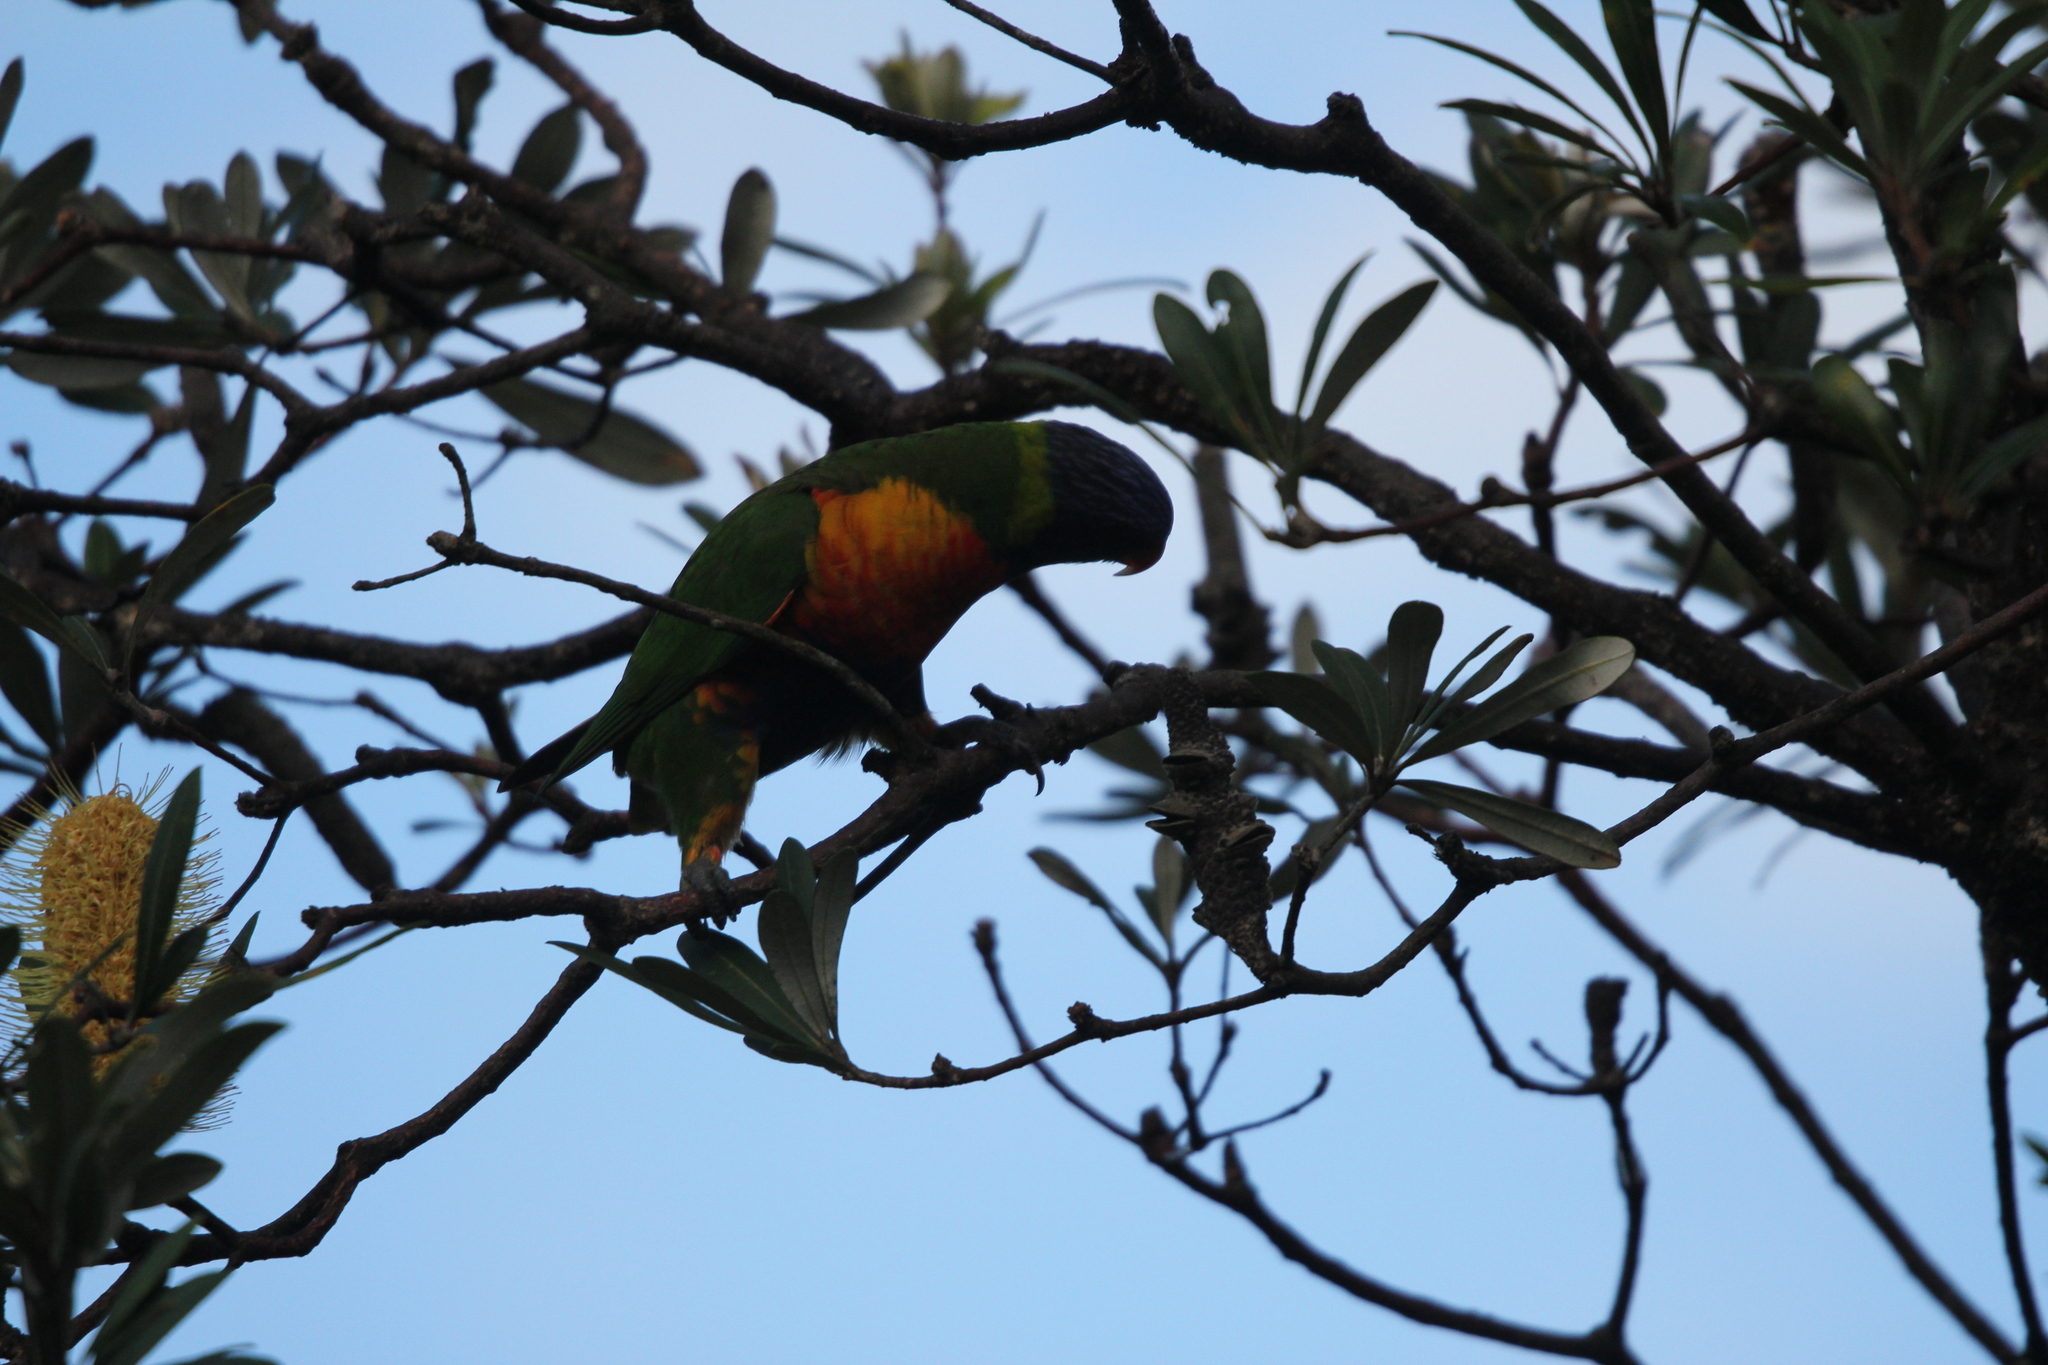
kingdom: Animalia
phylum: Chordata
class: Aves
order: Psittaciformes
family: Psittacidae
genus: Trichoglossus
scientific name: Trichoglossus haematodus
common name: Coconut lorikeet
